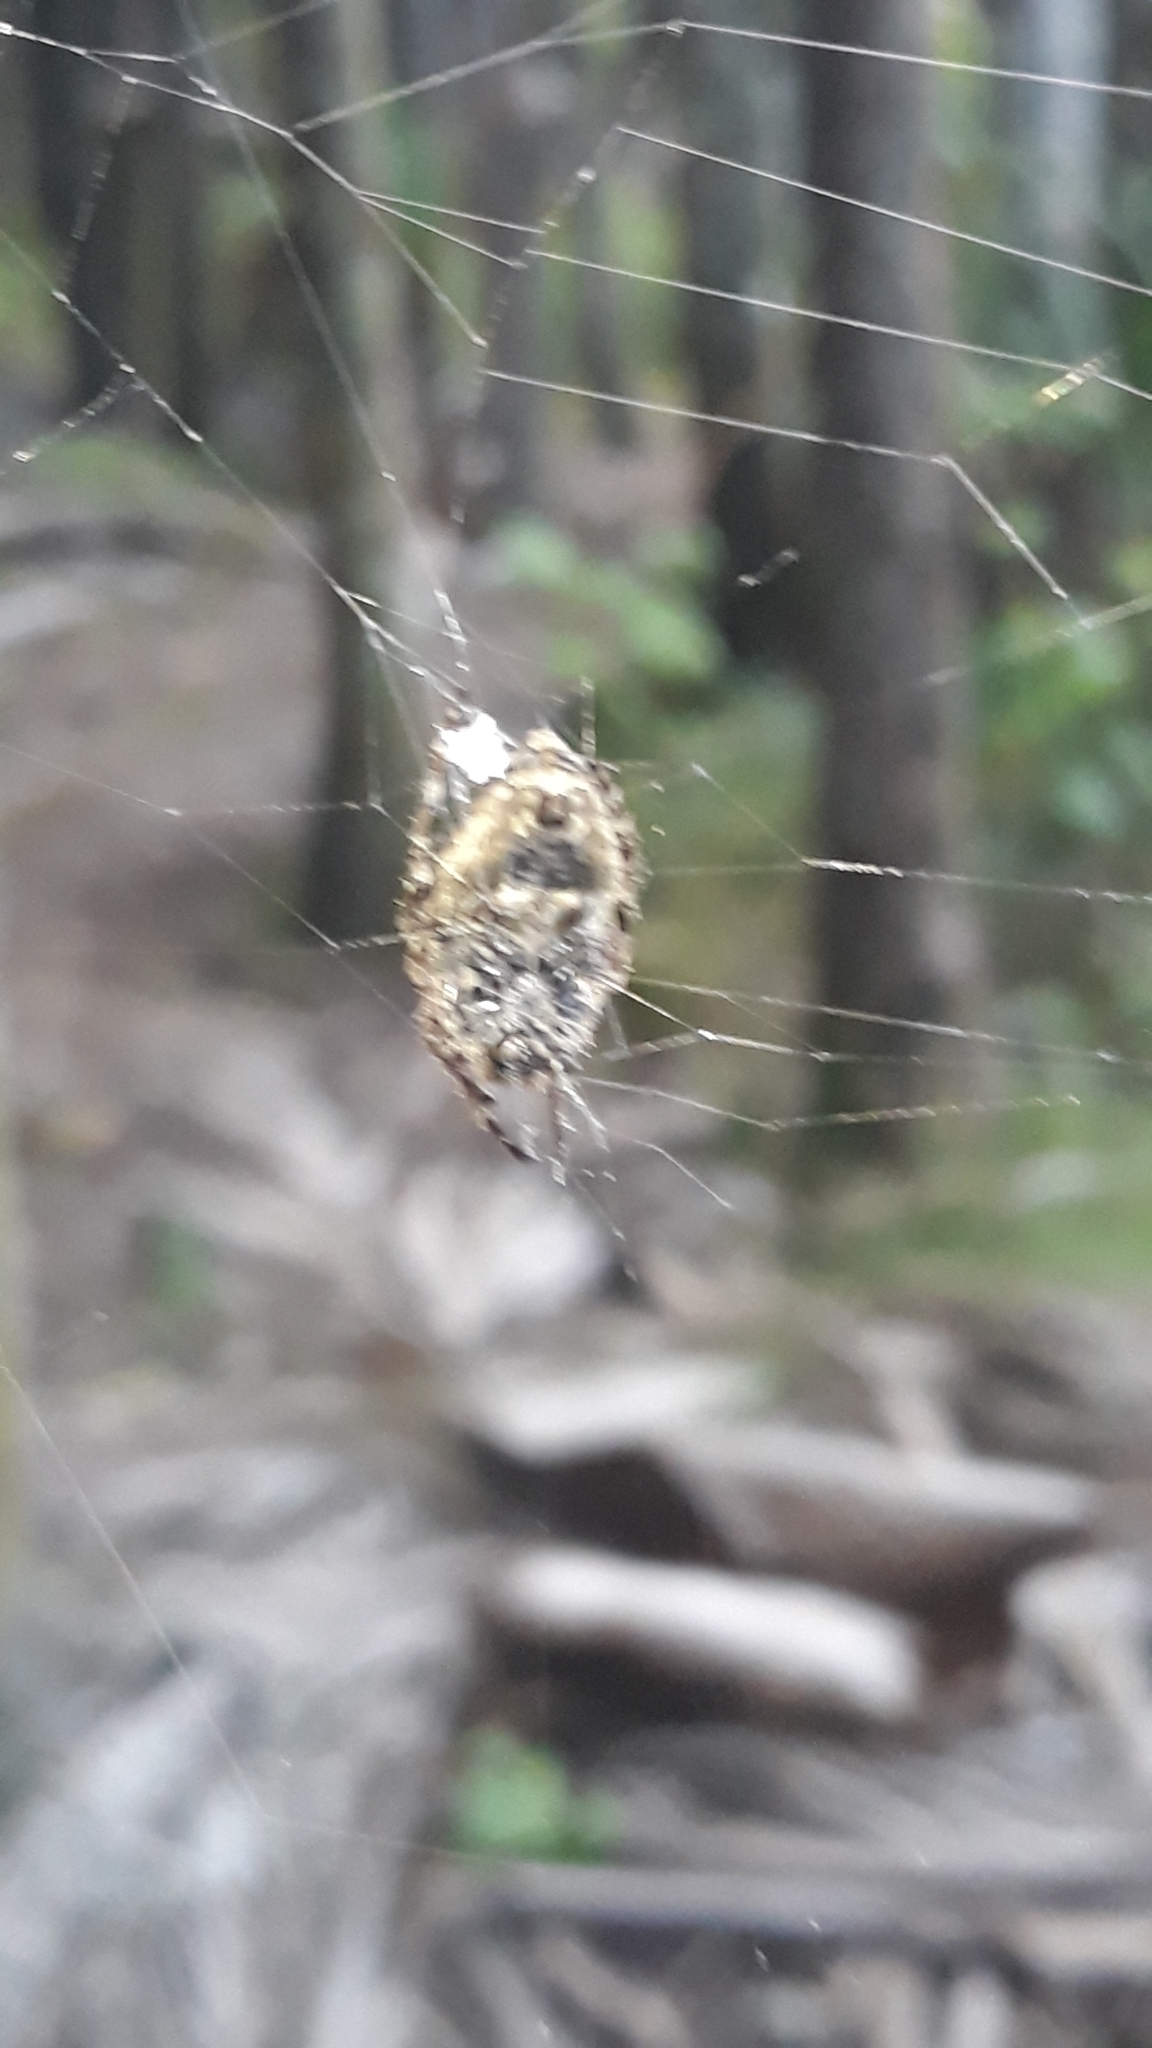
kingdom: Animalia
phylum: Arthropoda
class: Arachnida
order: Araneae
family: Araneidae
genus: Eriophora
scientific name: Eriophora pustulosa
